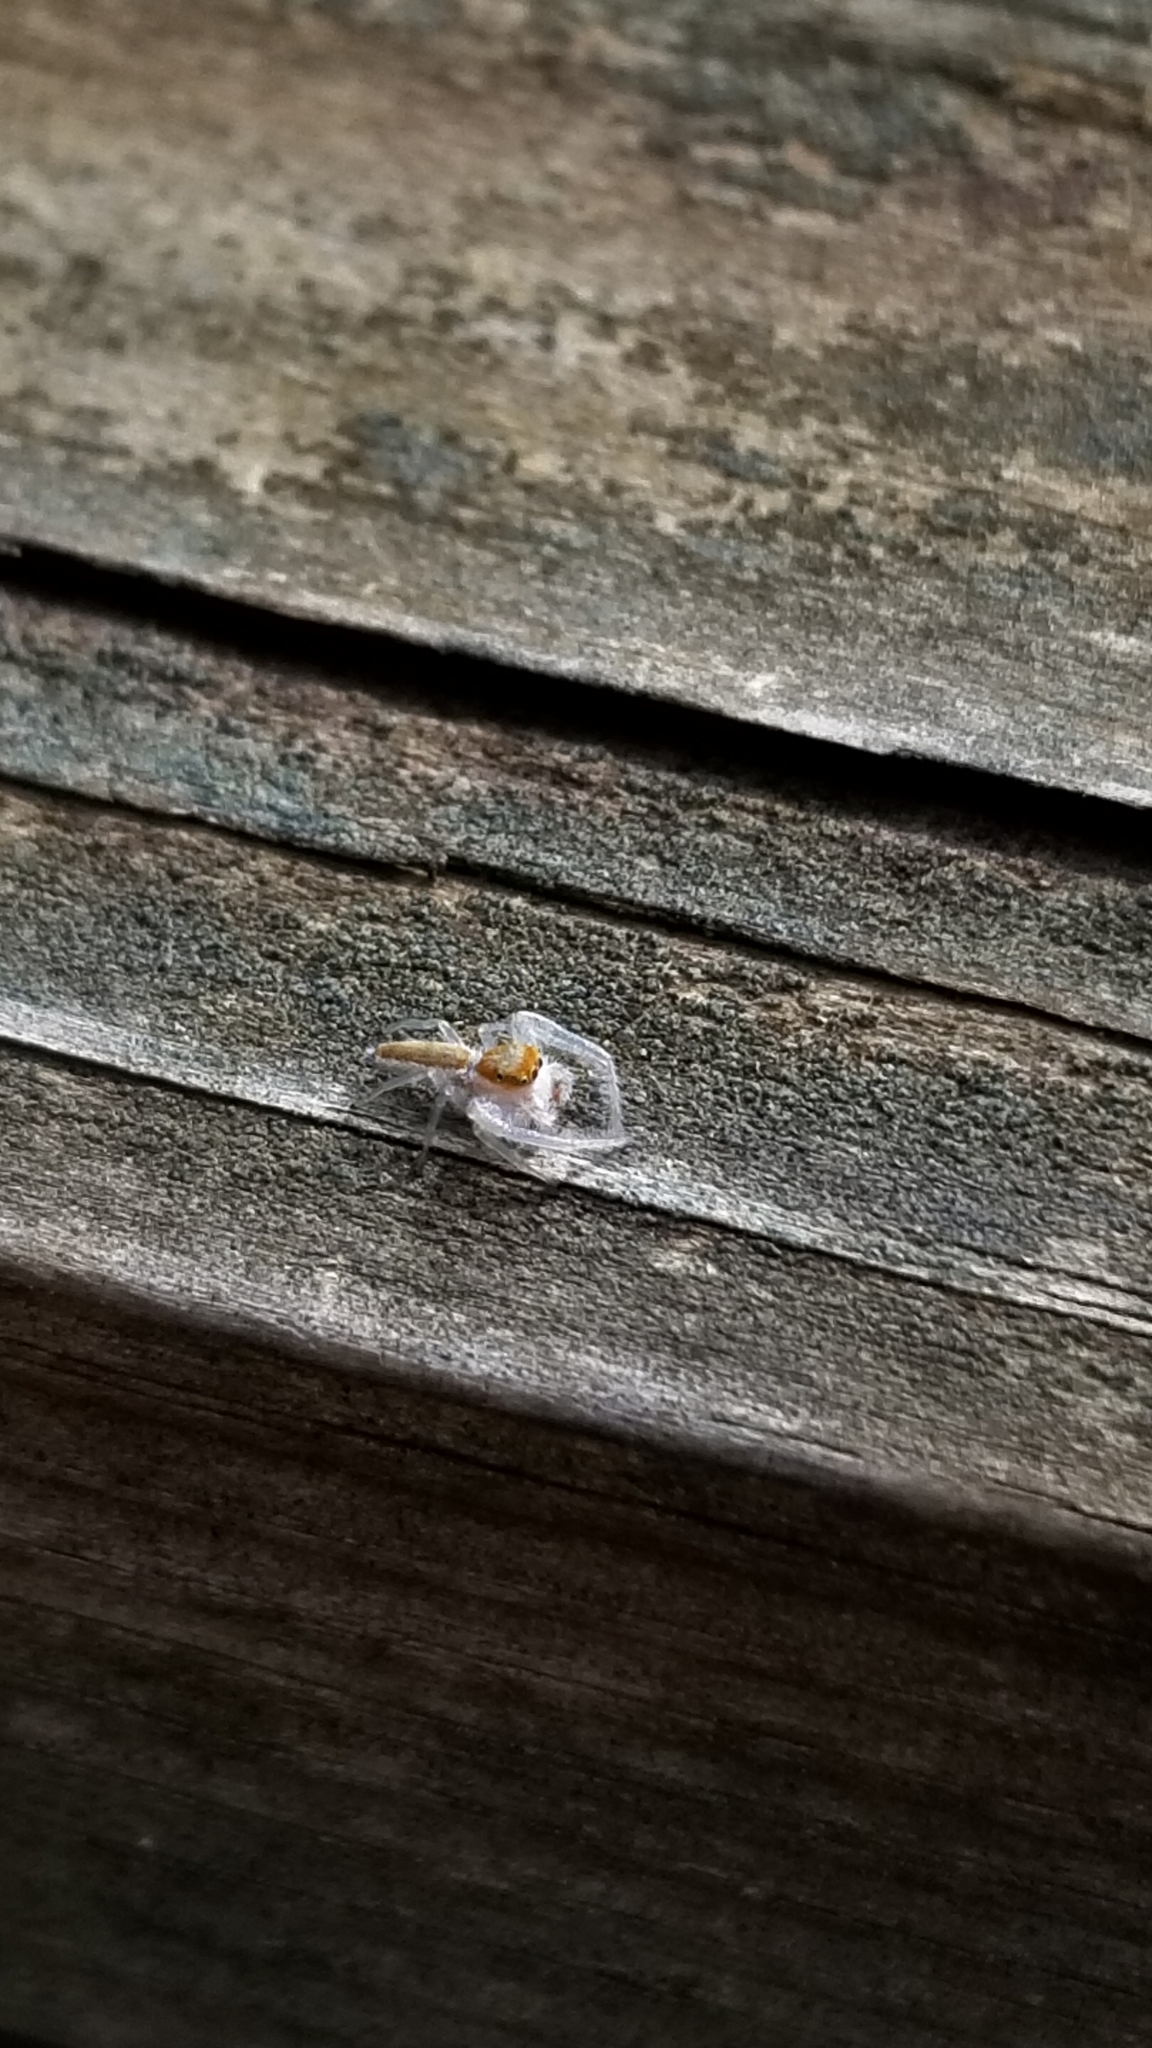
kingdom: Animalia
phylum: Arthropoda
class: Arachnida
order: Araneae
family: Salticidae
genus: Hentzia
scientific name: Hentzia mitrata
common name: White-jawed jumping spider
